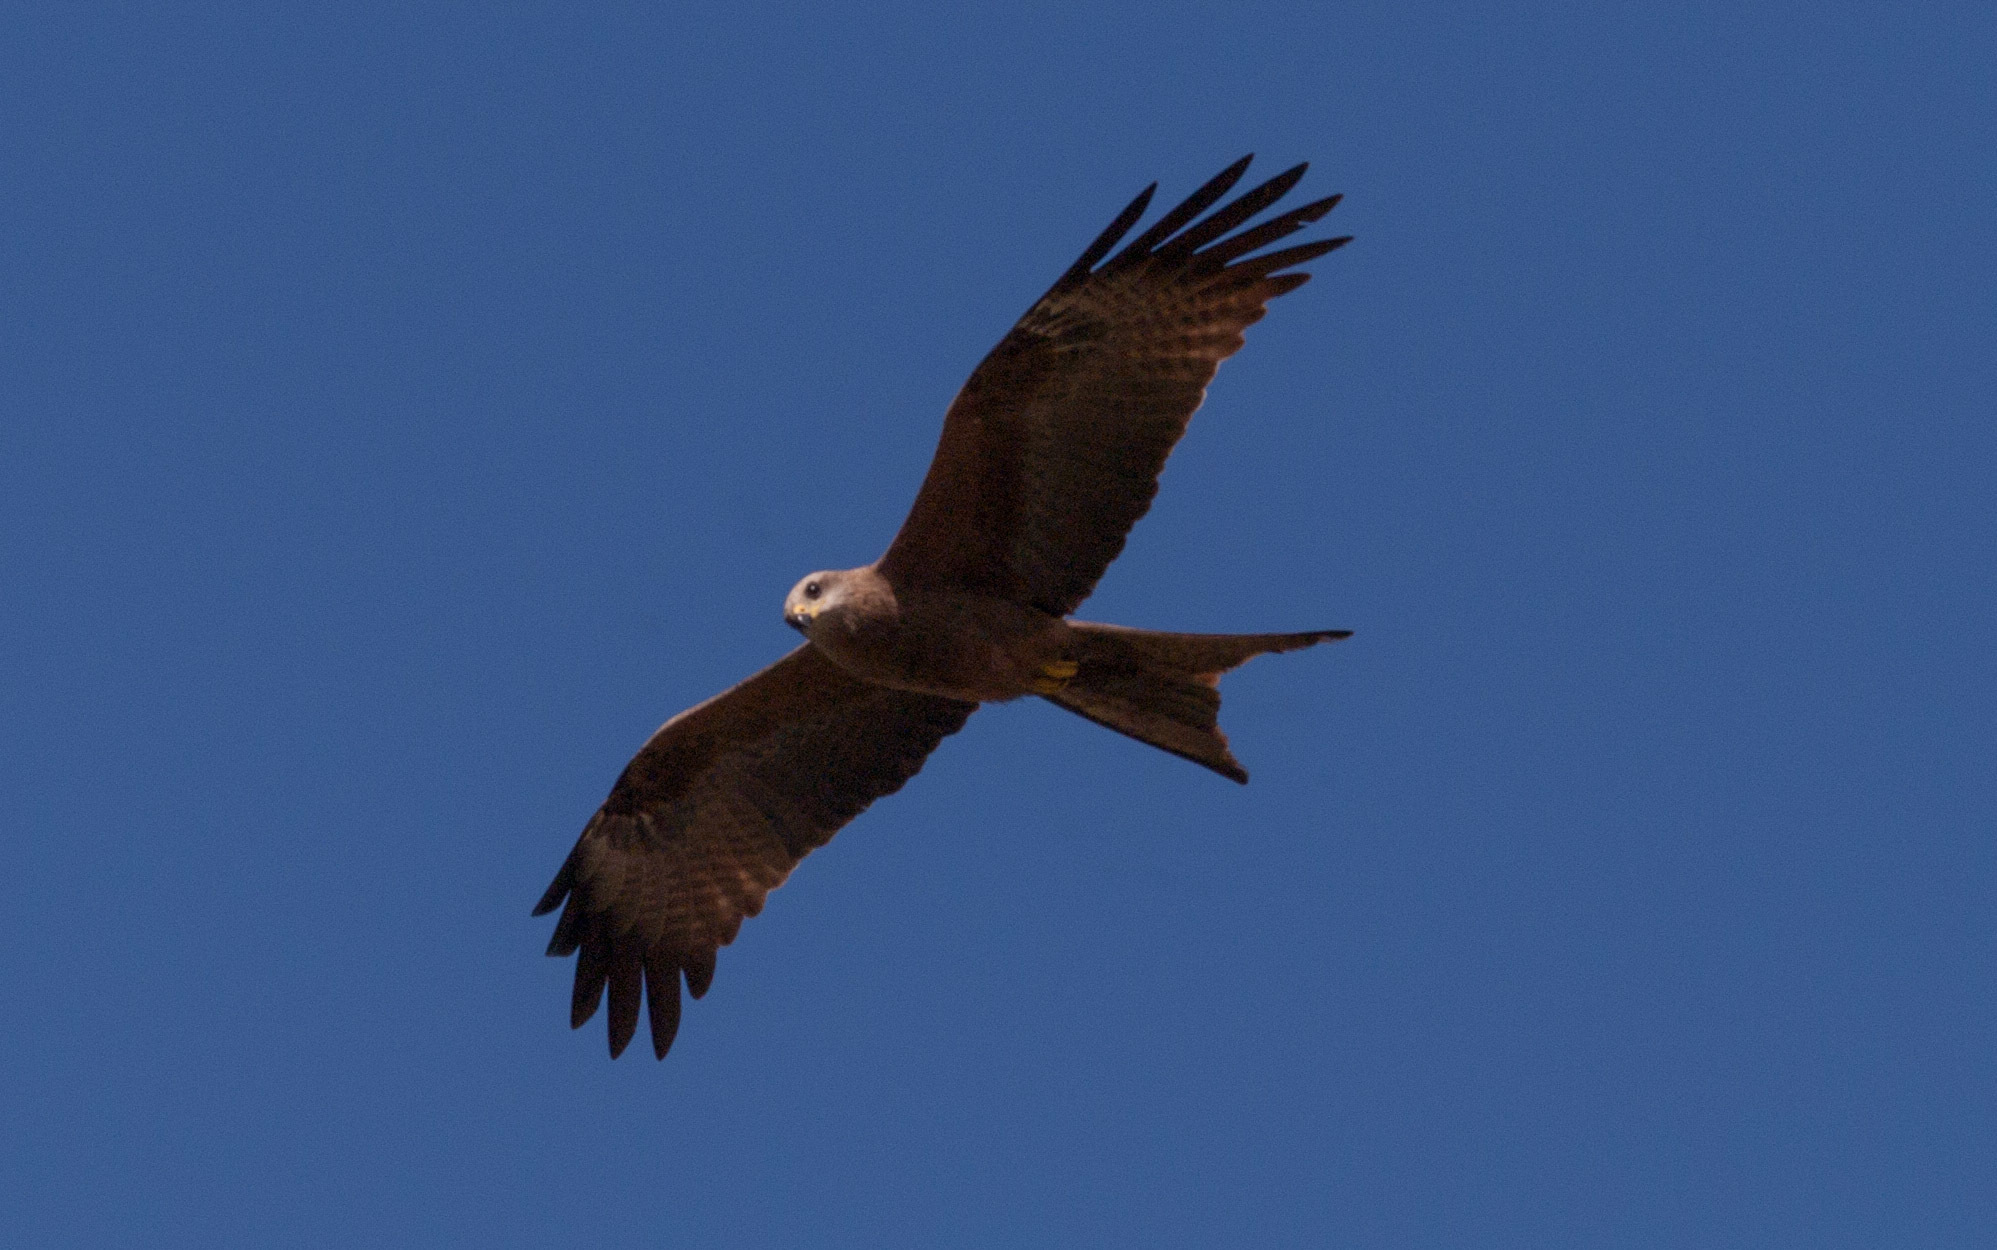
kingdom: Animalia
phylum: Chordata
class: Aves
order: Accipitriformes
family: Accipitridae
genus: Milvus
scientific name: Milvus migrans
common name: Black kite
